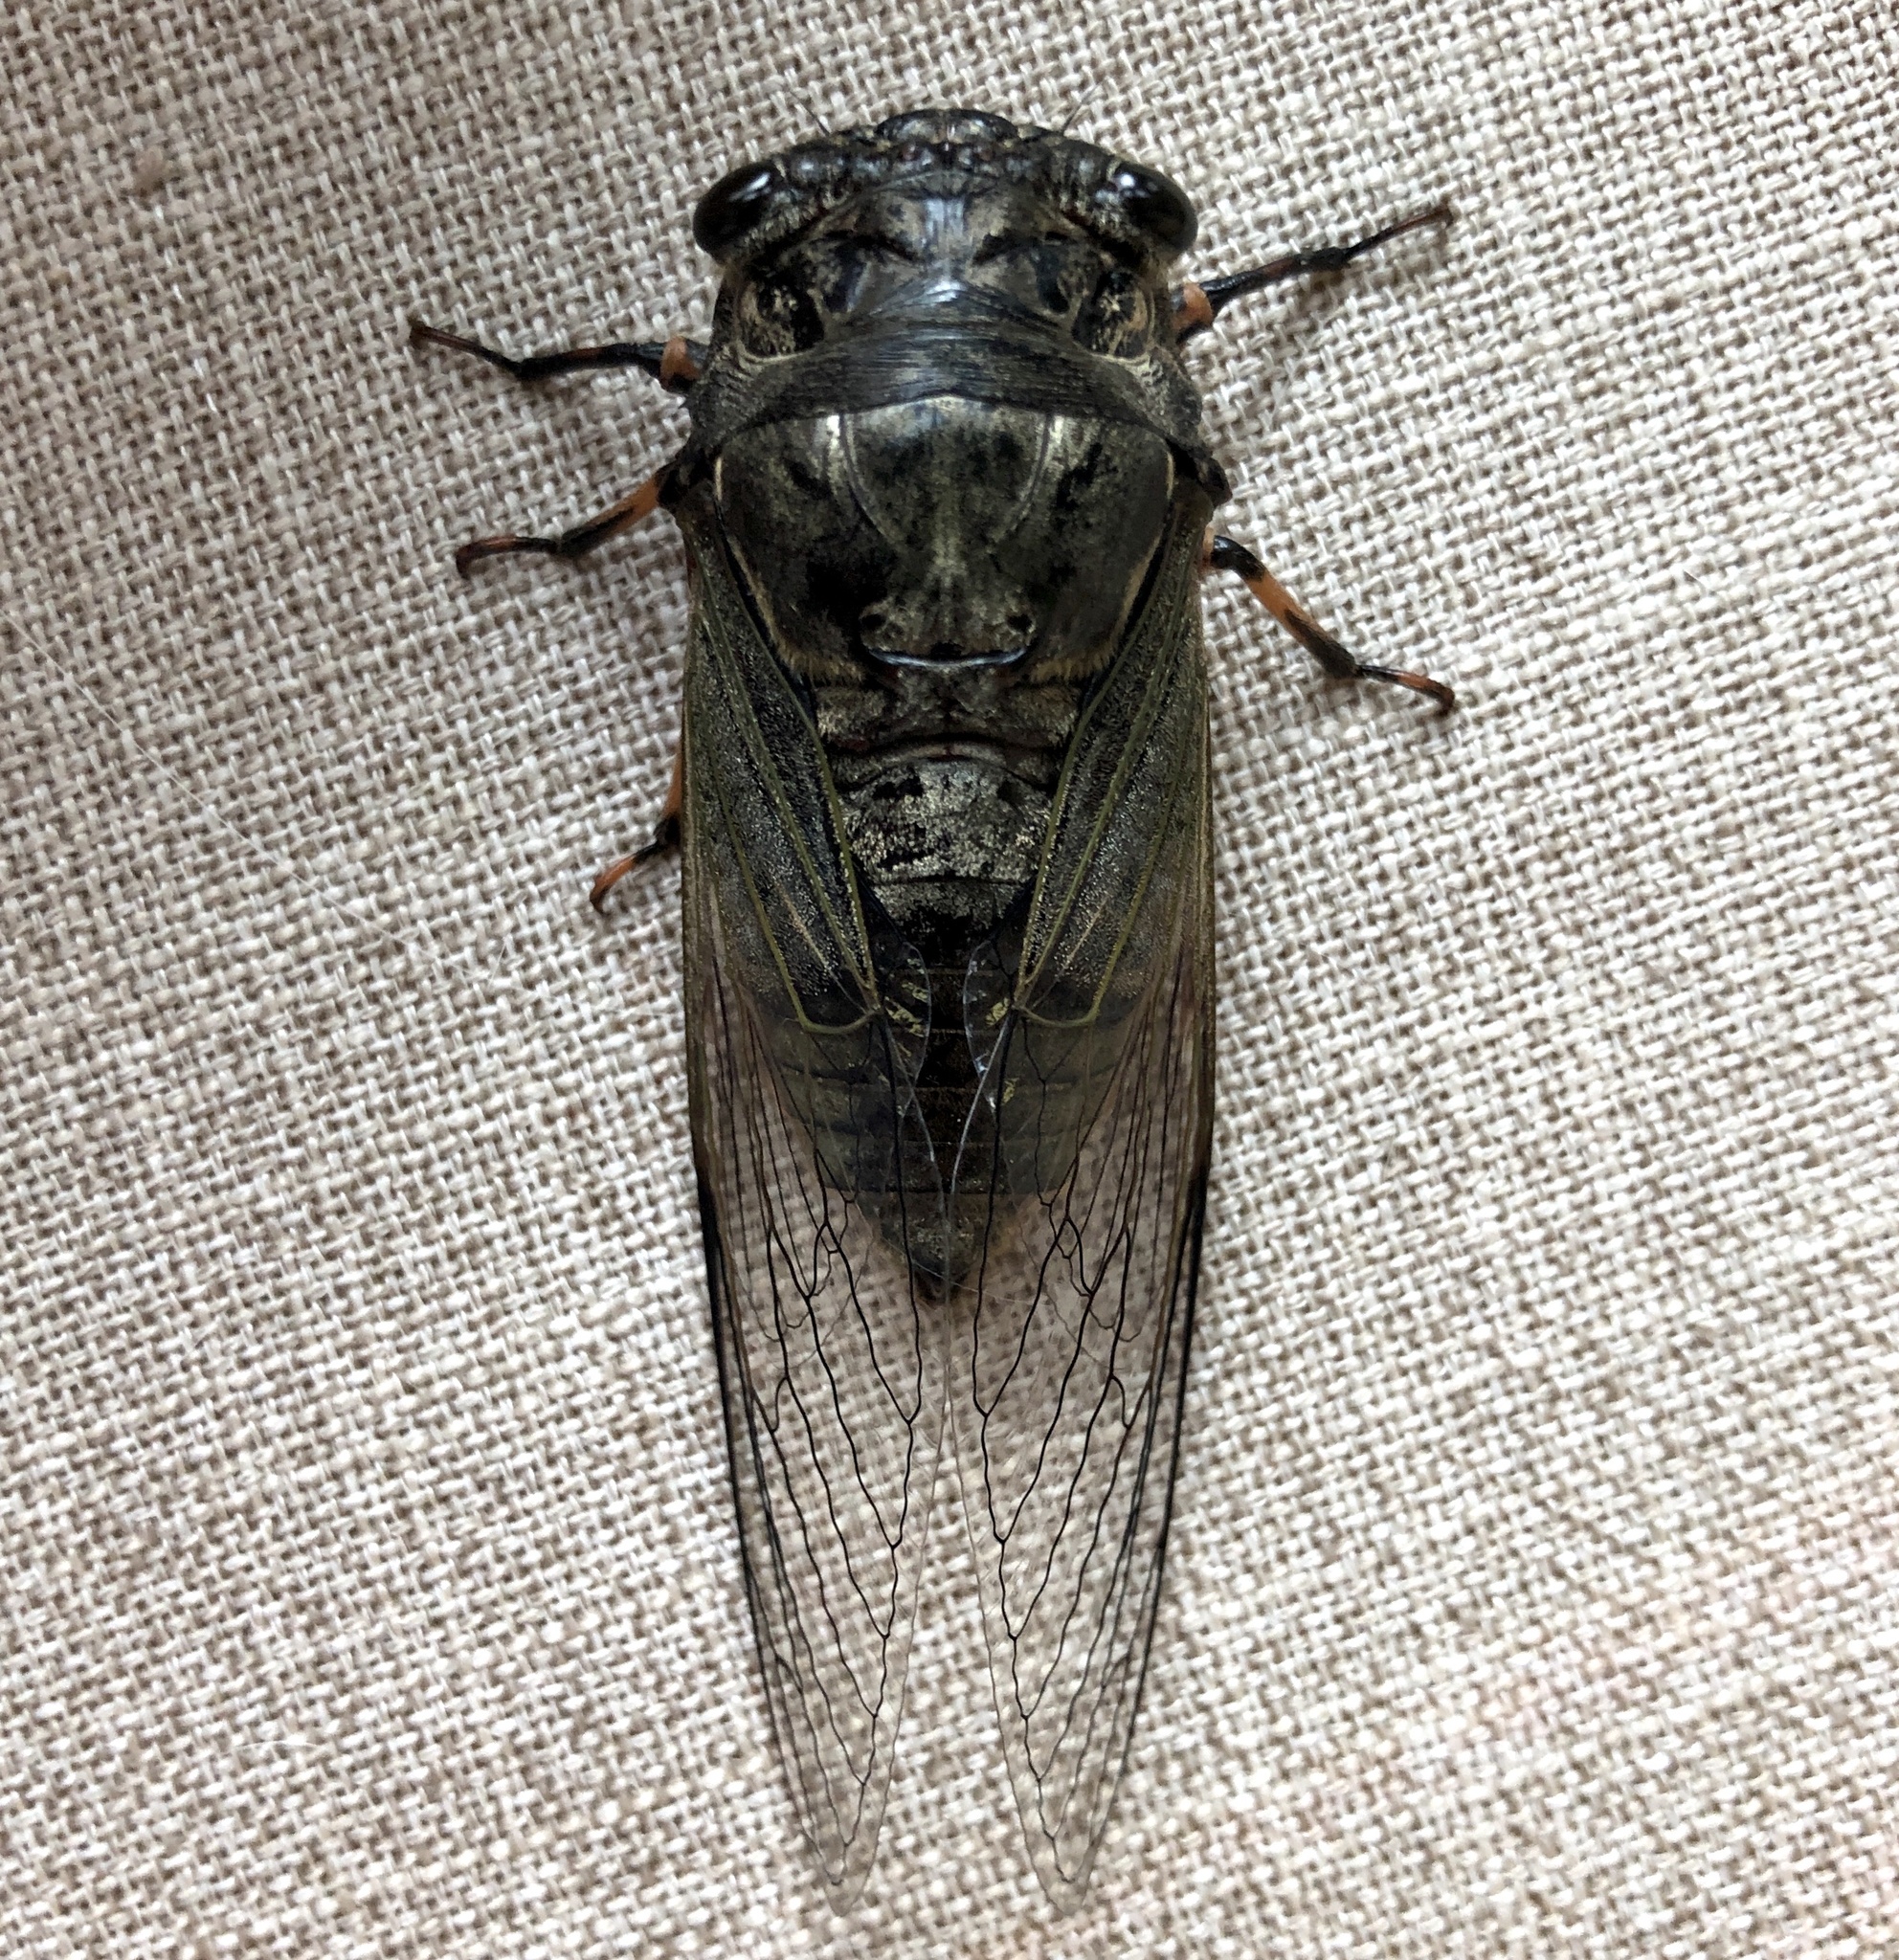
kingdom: Animalia
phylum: Arthropoda
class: Insecta
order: Hemiptera
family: Cicadidae
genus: Cryptotympana
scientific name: Cryptotympana atrata
